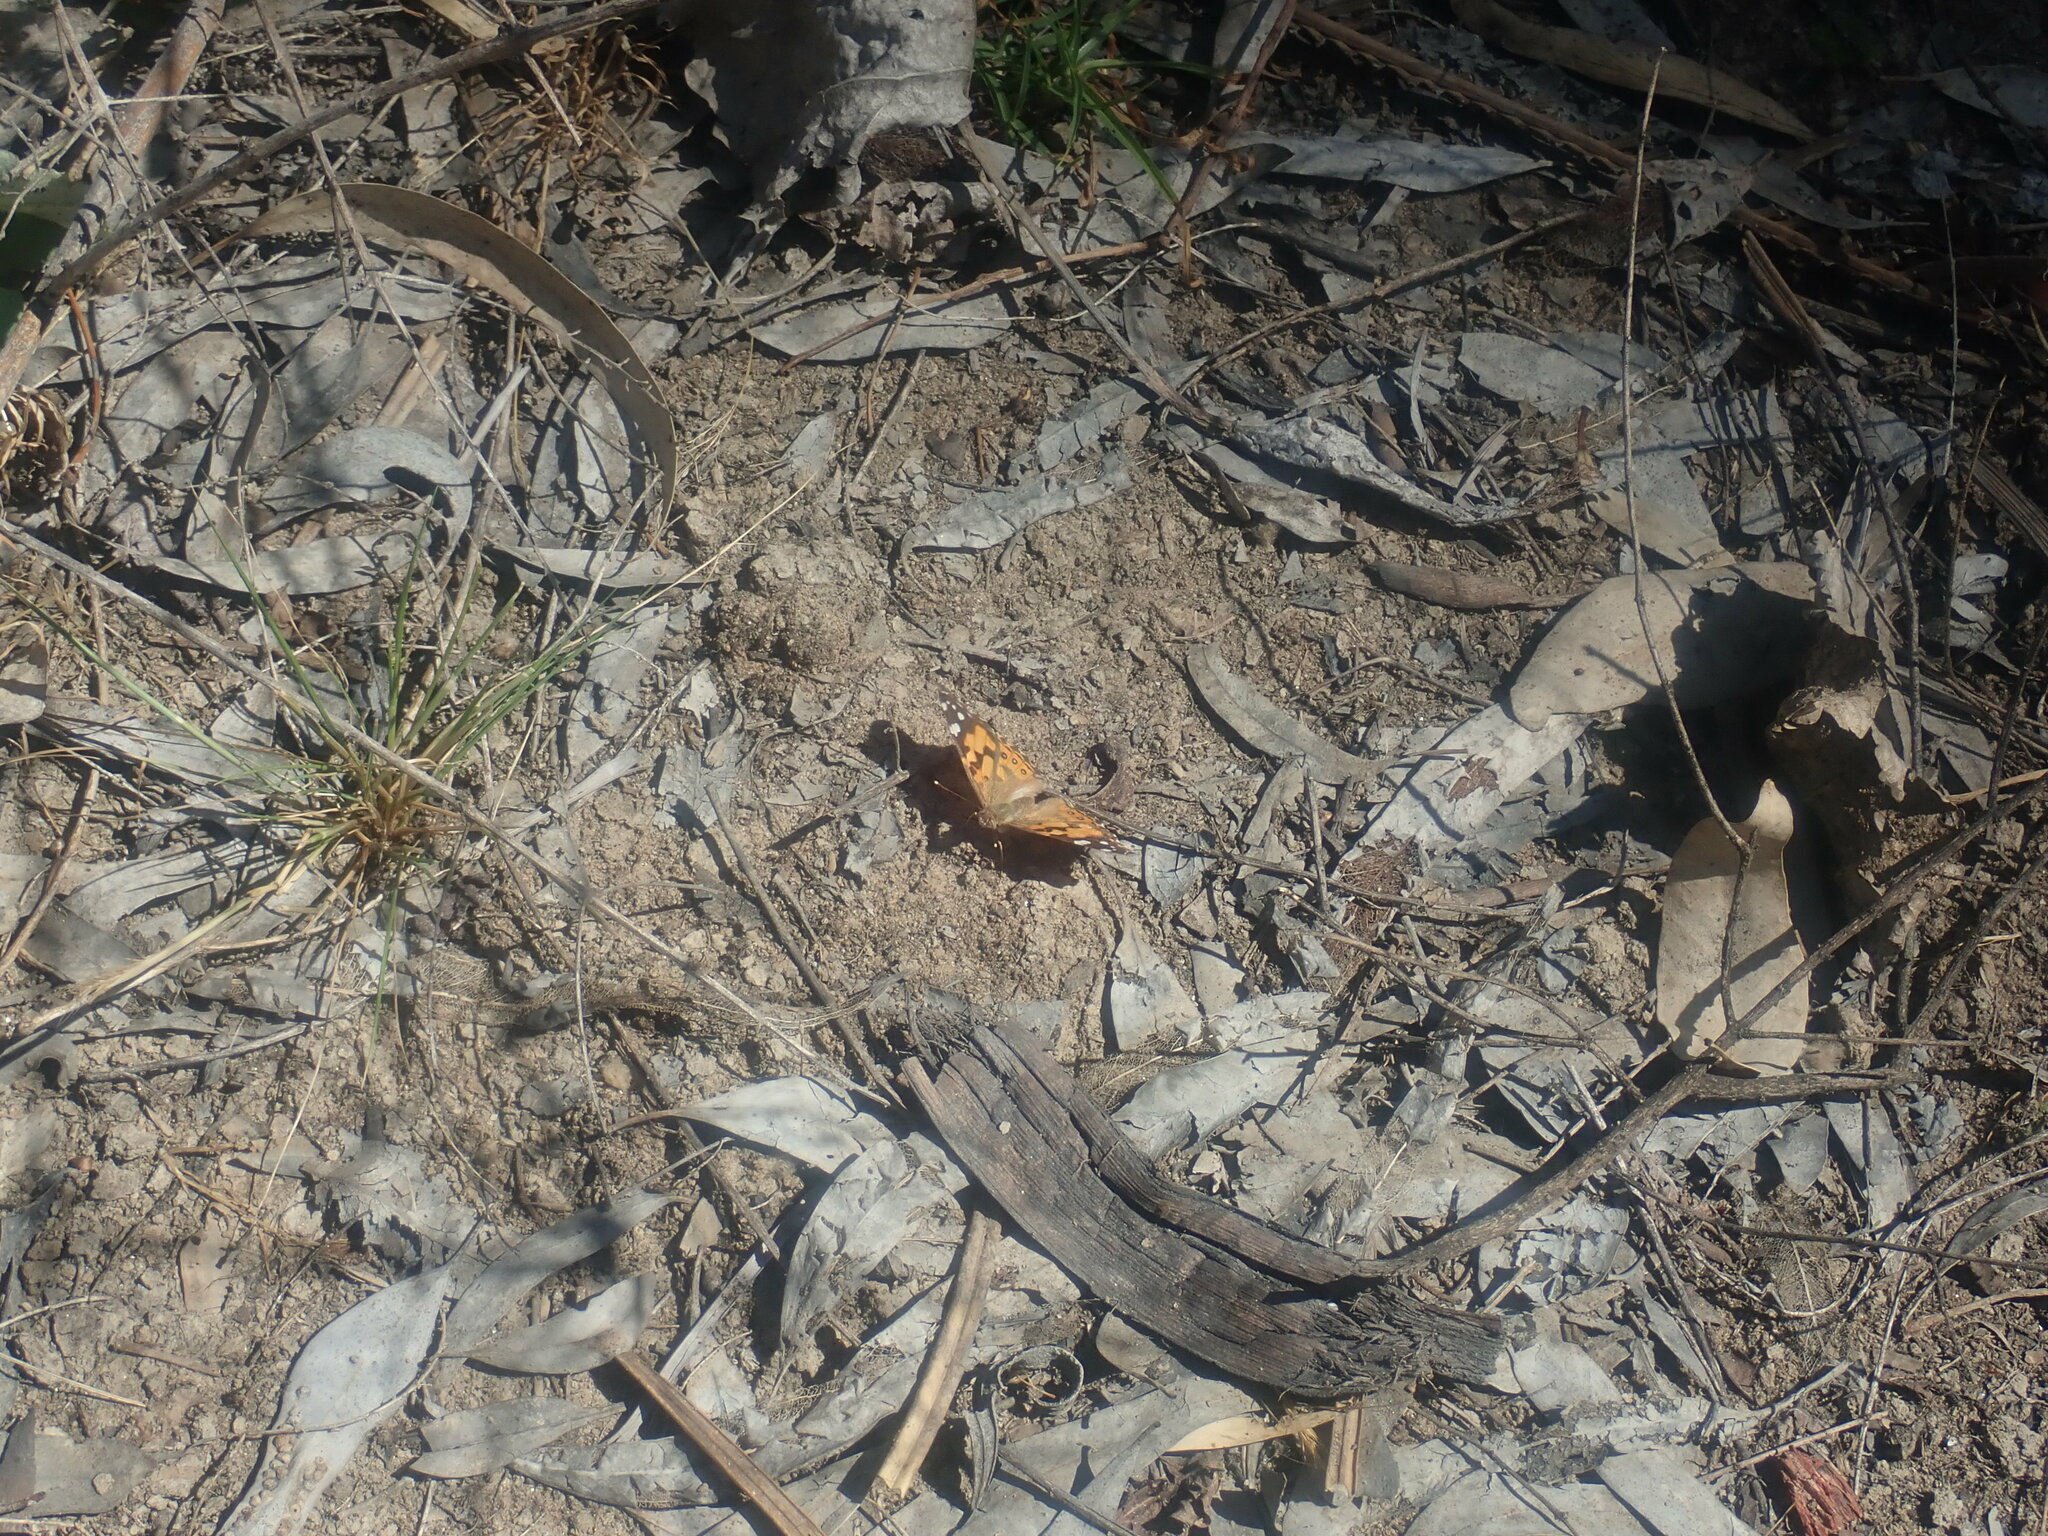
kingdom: Animalia
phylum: Arthropoda
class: Insecta
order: Lepidoptera
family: Nymphalidae
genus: Vanessa
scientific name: Vanessa kershawi
